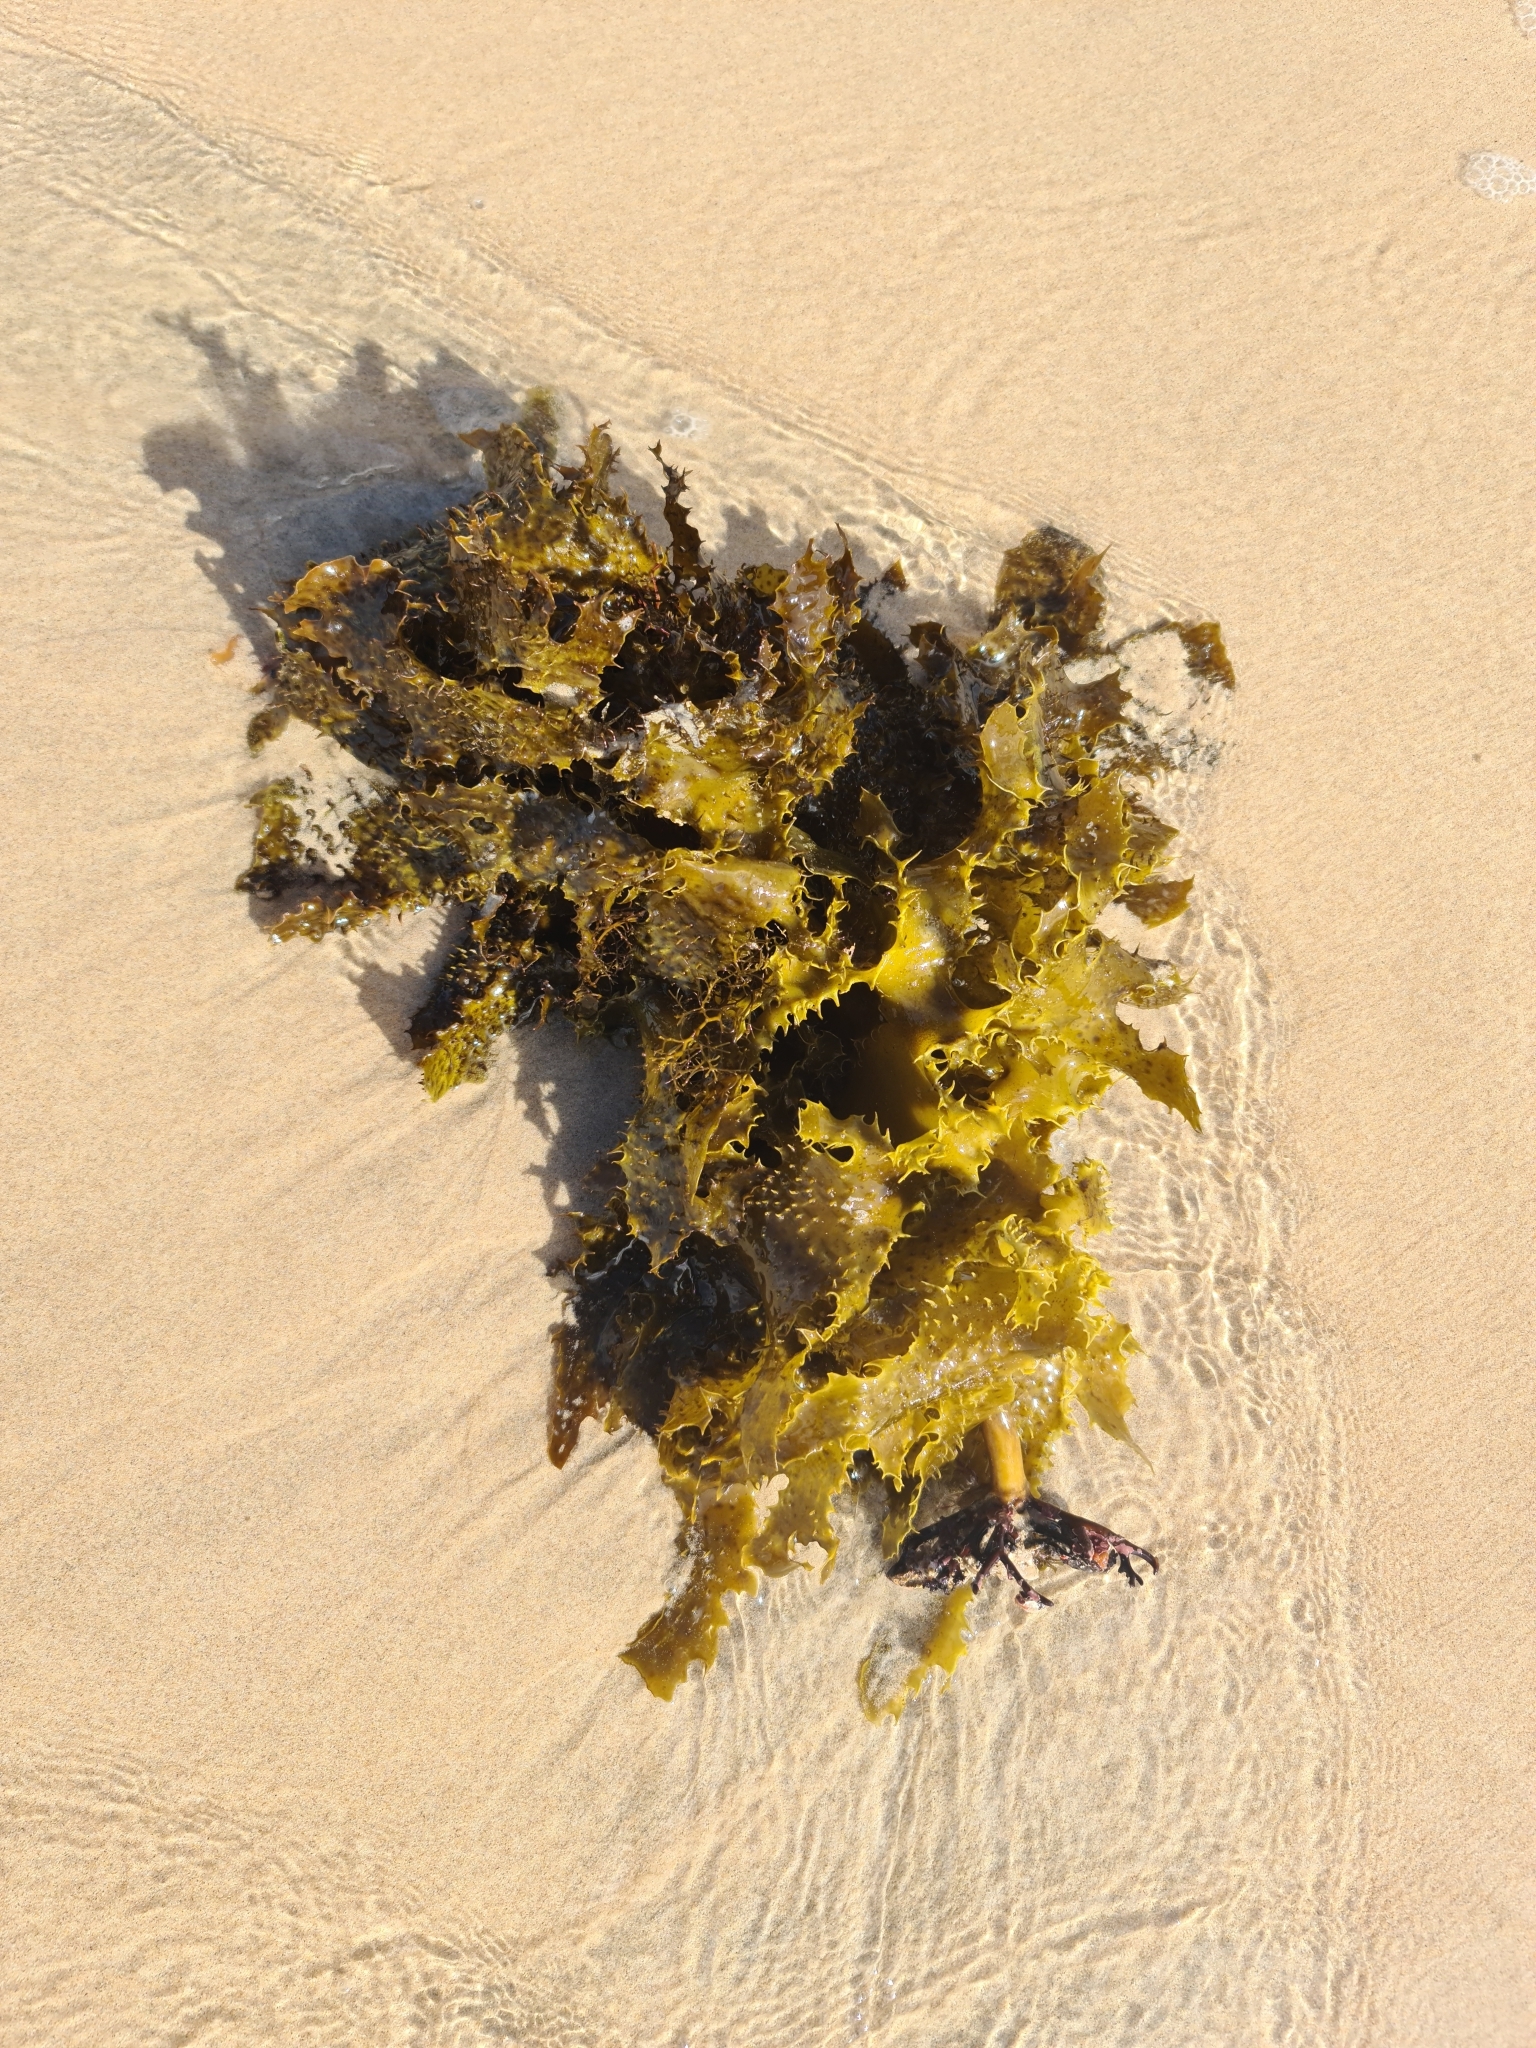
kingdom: Chromista
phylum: Ochrophyta
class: Phaeophyceae
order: Laminariales
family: Lessoniaceae
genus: Ecklonia
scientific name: Ecklonia radiata
